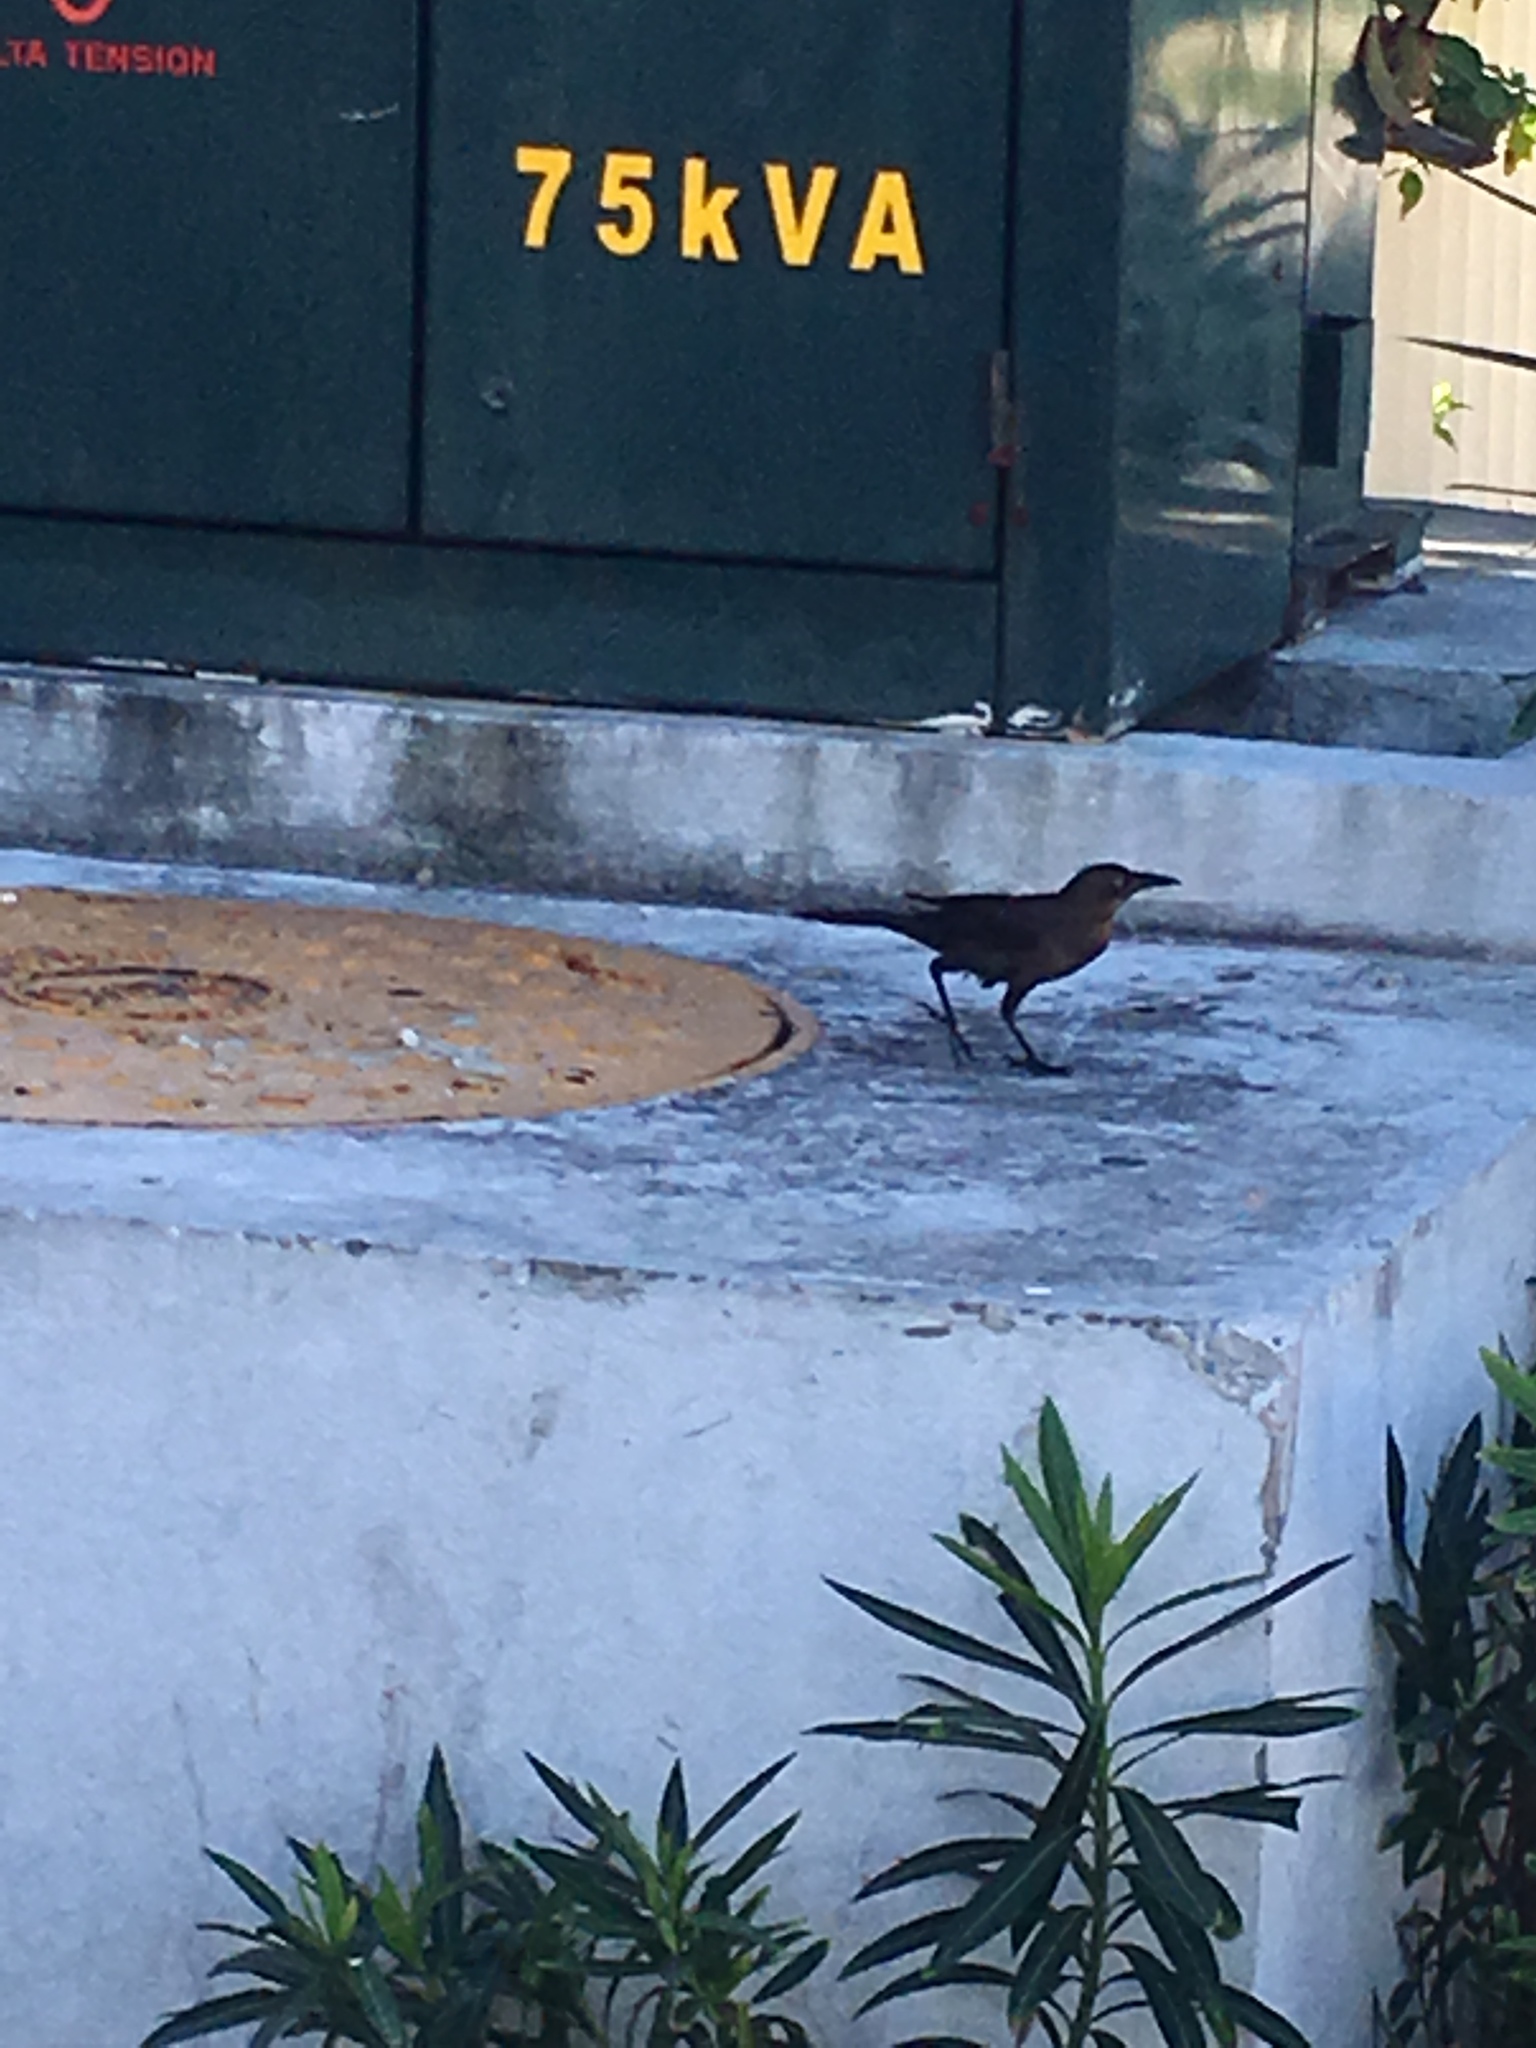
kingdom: Animalia
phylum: Chordata
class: Aves
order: Passeriformes
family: Icteridae
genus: Quiscalus
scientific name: Quiscalus mexicanus
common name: Great-tailed grackle
